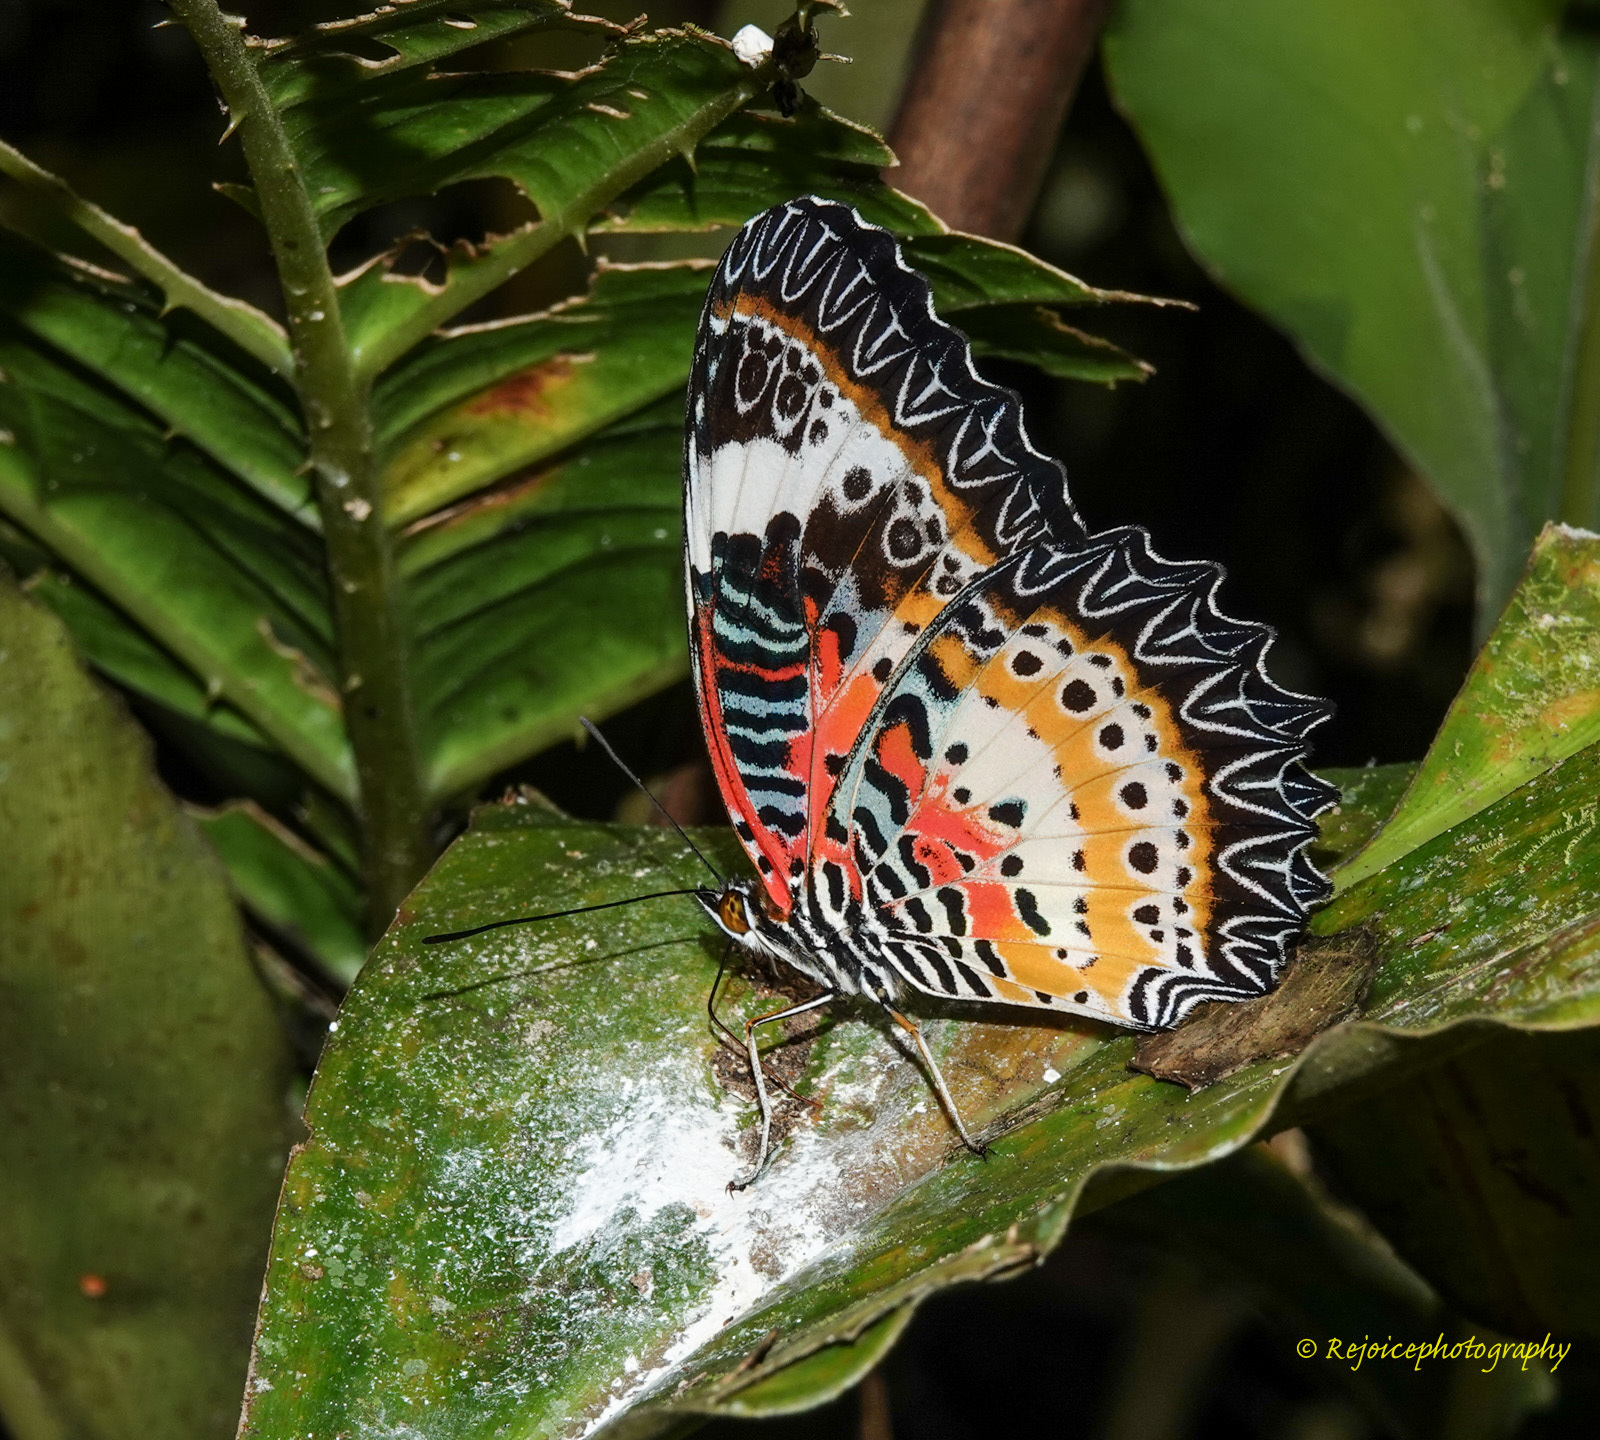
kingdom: Animalia
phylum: Arthropoda
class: Insecta
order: Lepidoptera
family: Nymphalidae
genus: Cethosia
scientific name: Cethosia cyane
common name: Leopard lacewing butterfly
